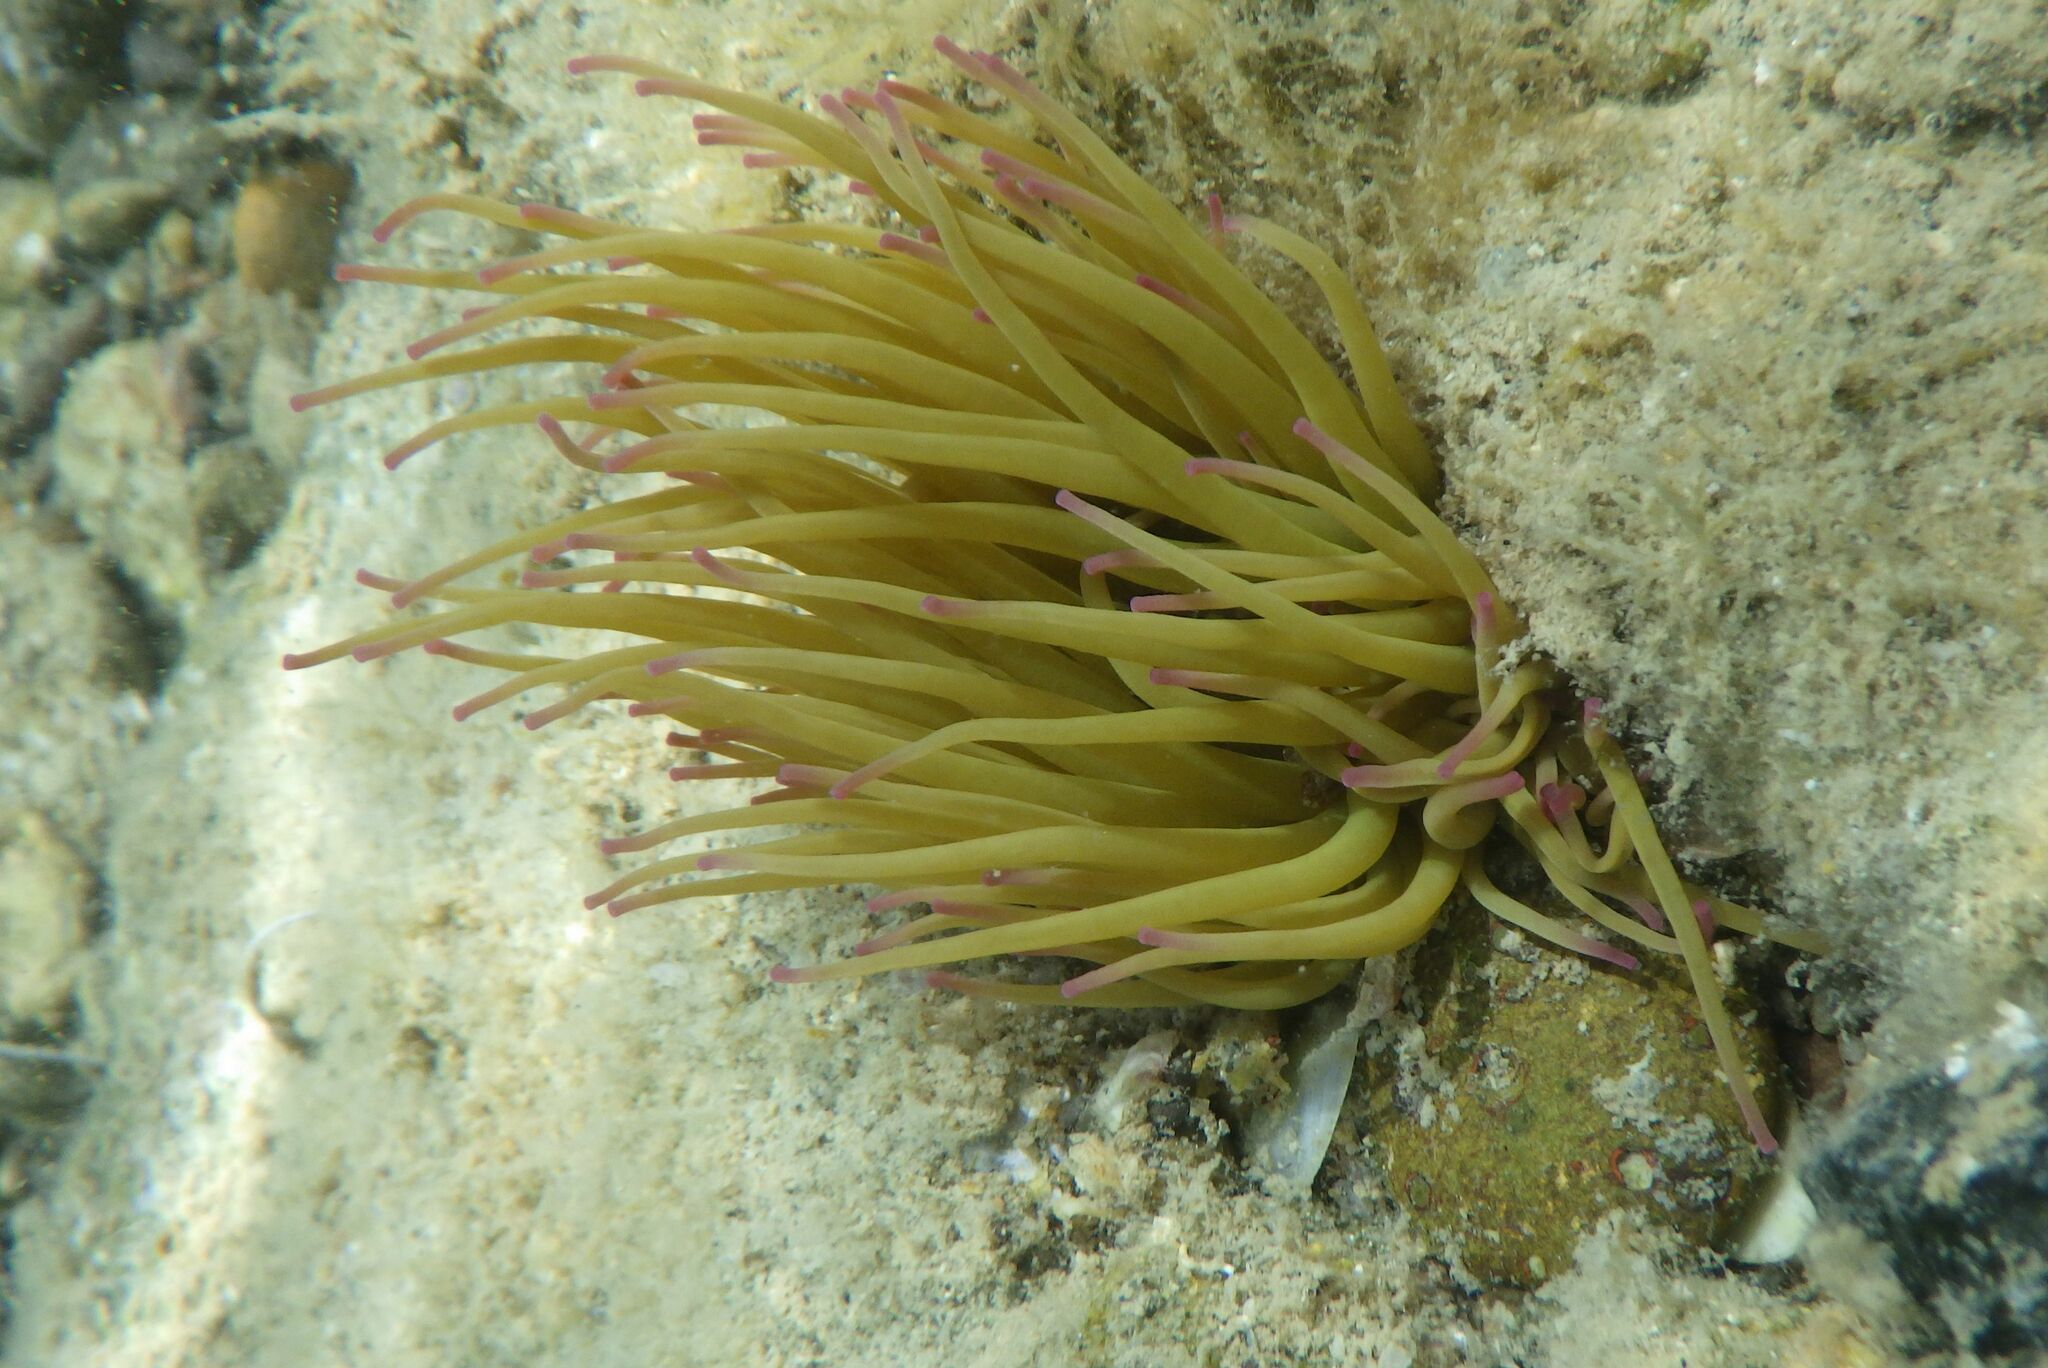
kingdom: Animalia
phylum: Cnidaria
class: Anthozoa
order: Actiniaria
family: Actiniidae
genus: Anemonia
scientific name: Anemonia viridis
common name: Snakelocks anemone
